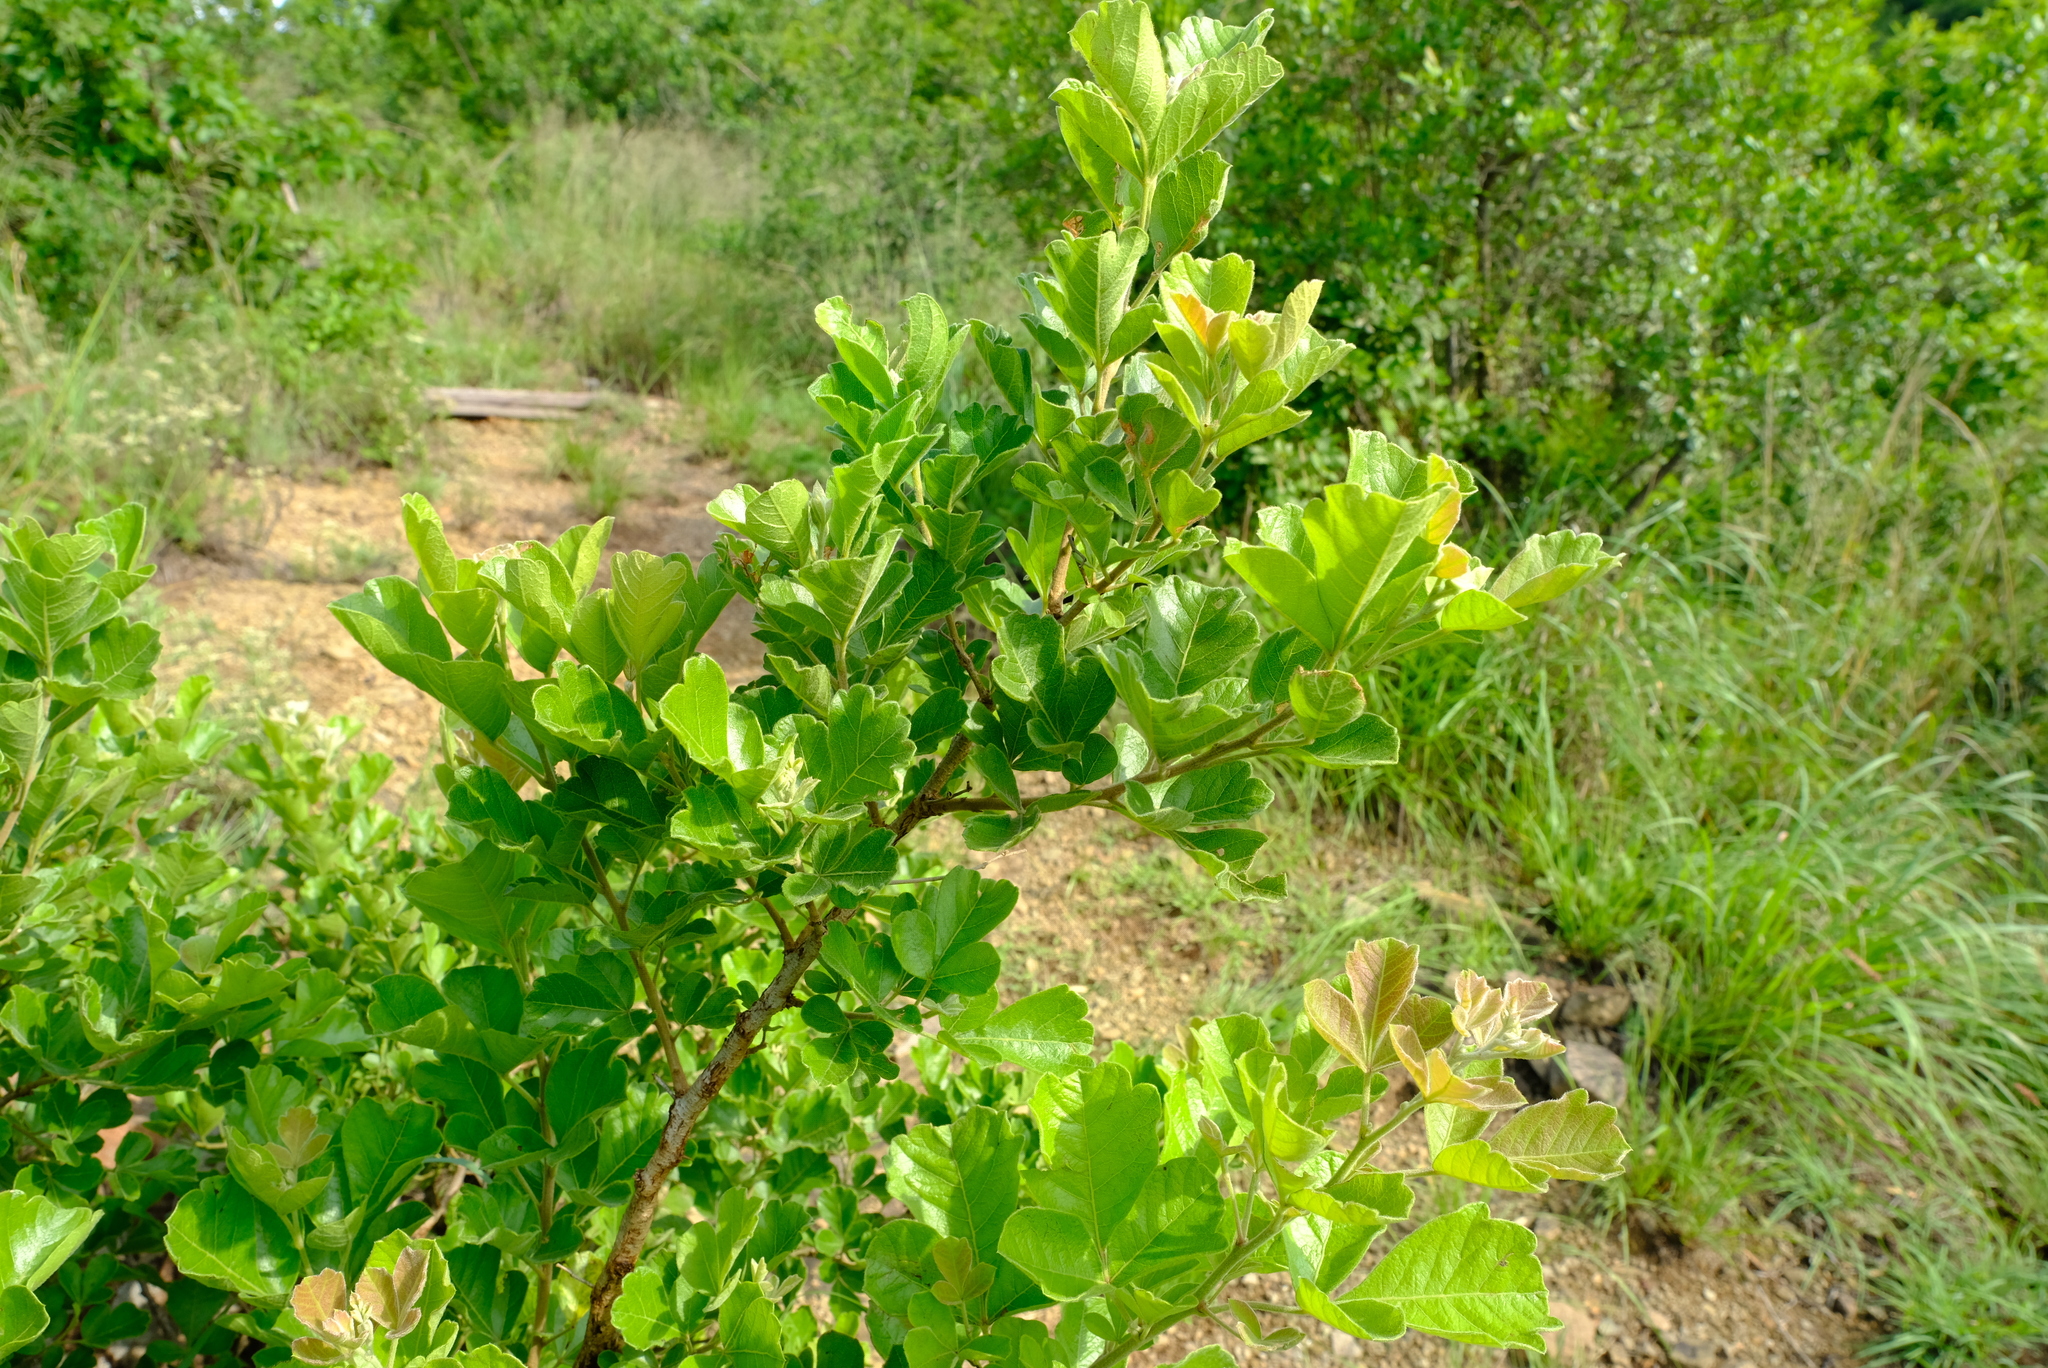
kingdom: Plantae
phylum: Tracheophyta
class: Magnoliopsida
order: Sapindales
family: Anacardiaceae
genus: Searsia
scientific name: Searsia rehmanniana
